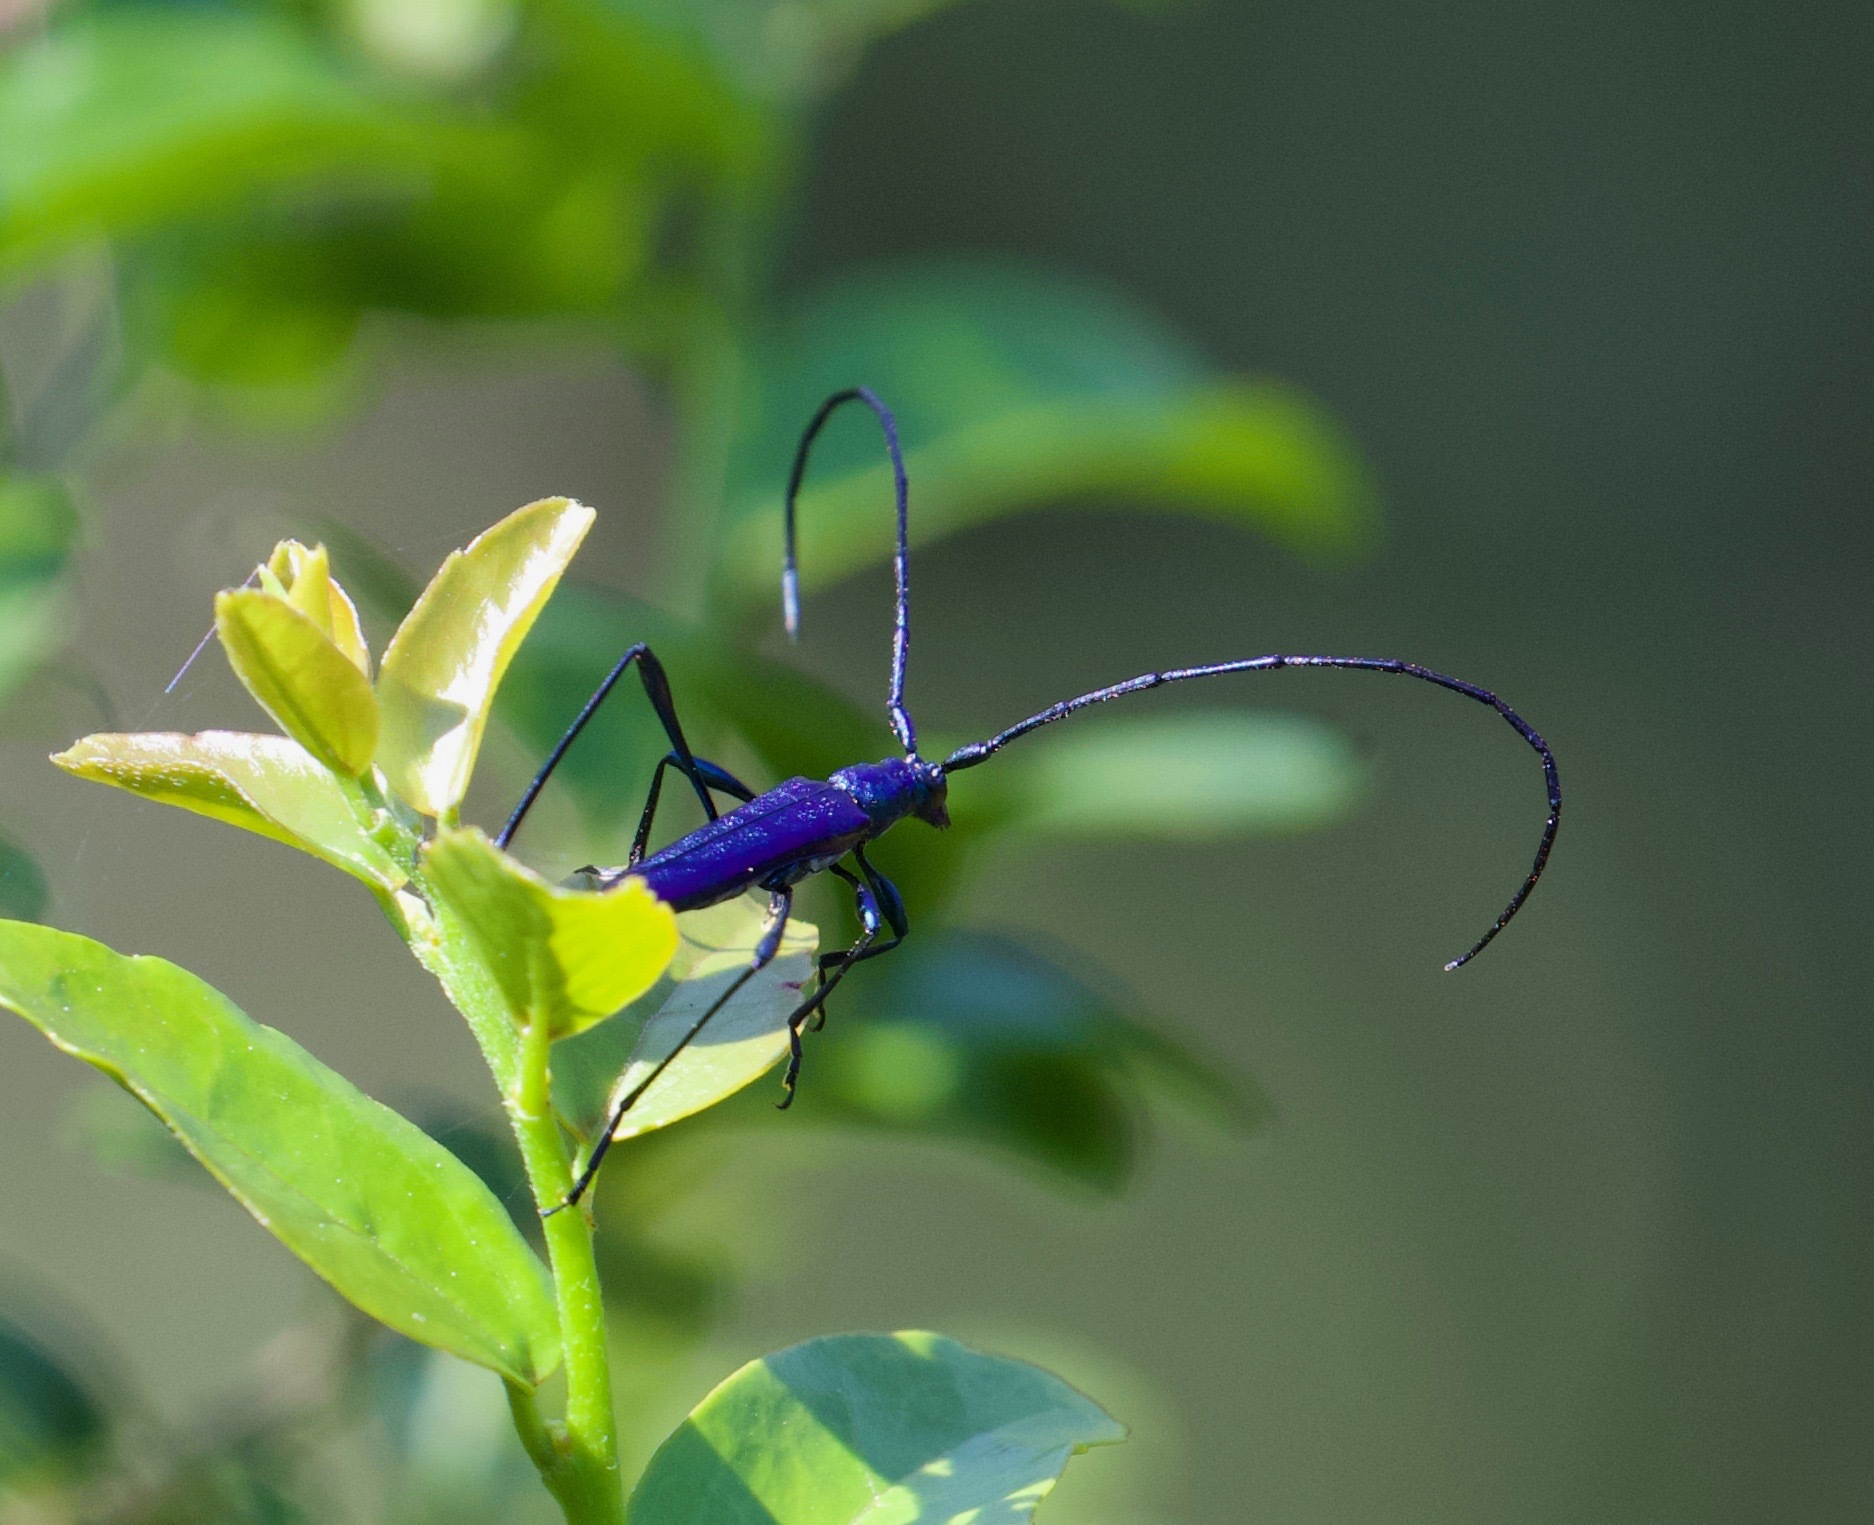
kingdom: Animalia
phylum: Arthropoda
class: Insecta
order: Coleoptera
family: Cerambycidae
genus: Promeces
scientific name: Promeces longipes
